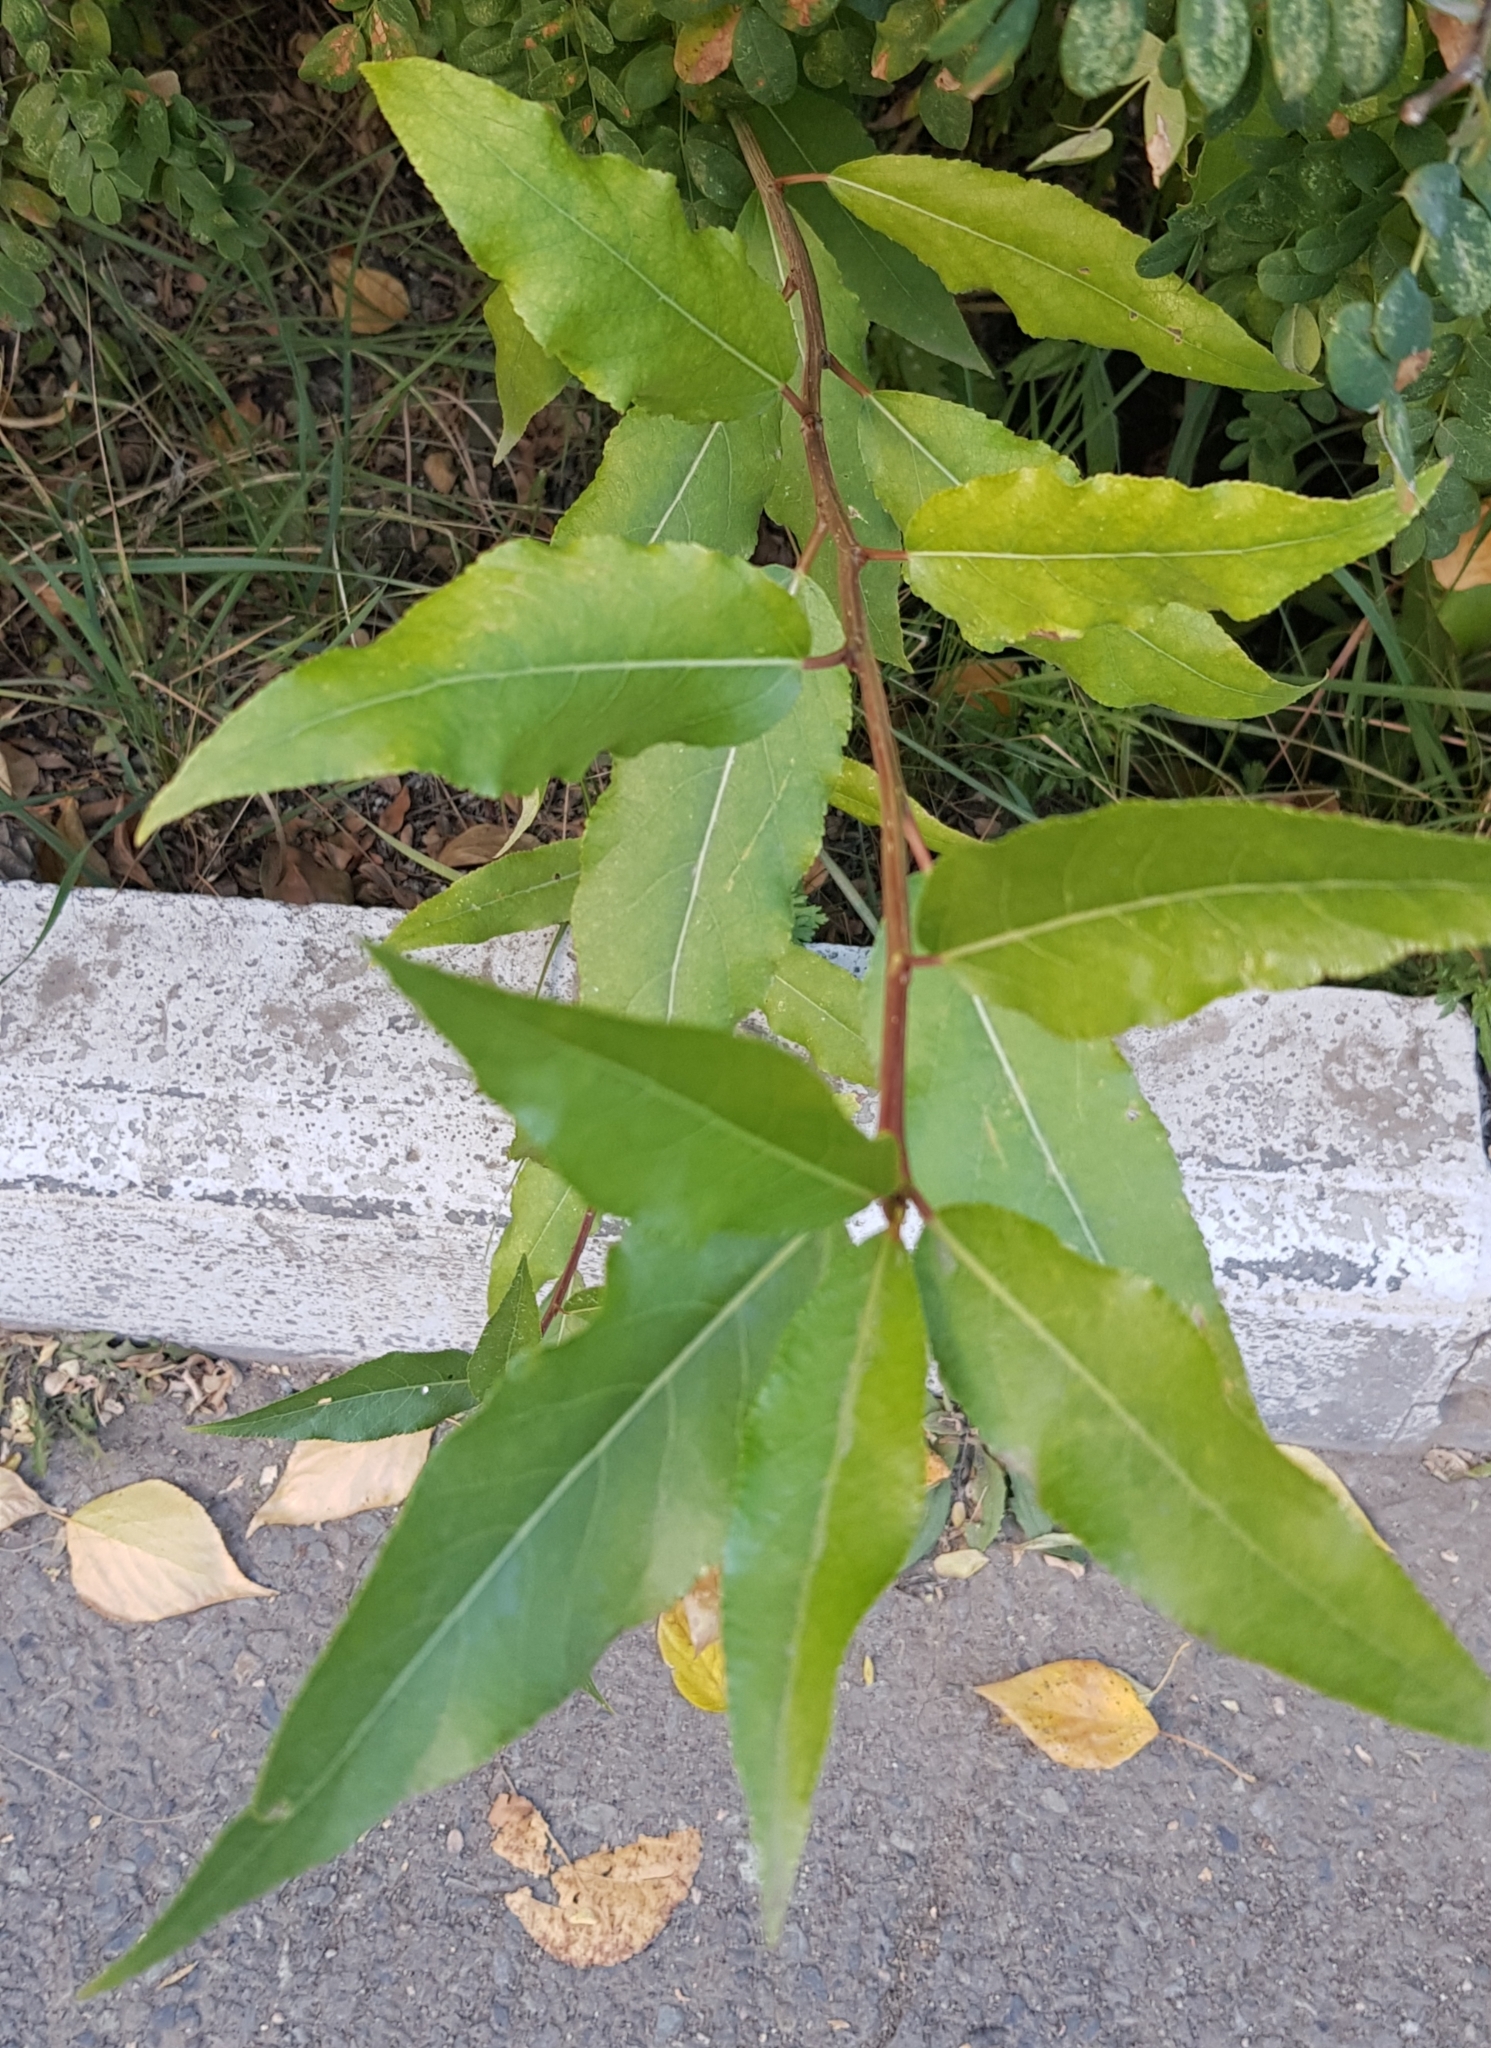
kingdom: Plantae
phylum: Tracheophyta
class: Magnoliopsida
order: Malpighiales
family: Salicaceae
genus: Populus
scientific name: Populus laurifolia
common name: Laurel-leaf poplar
